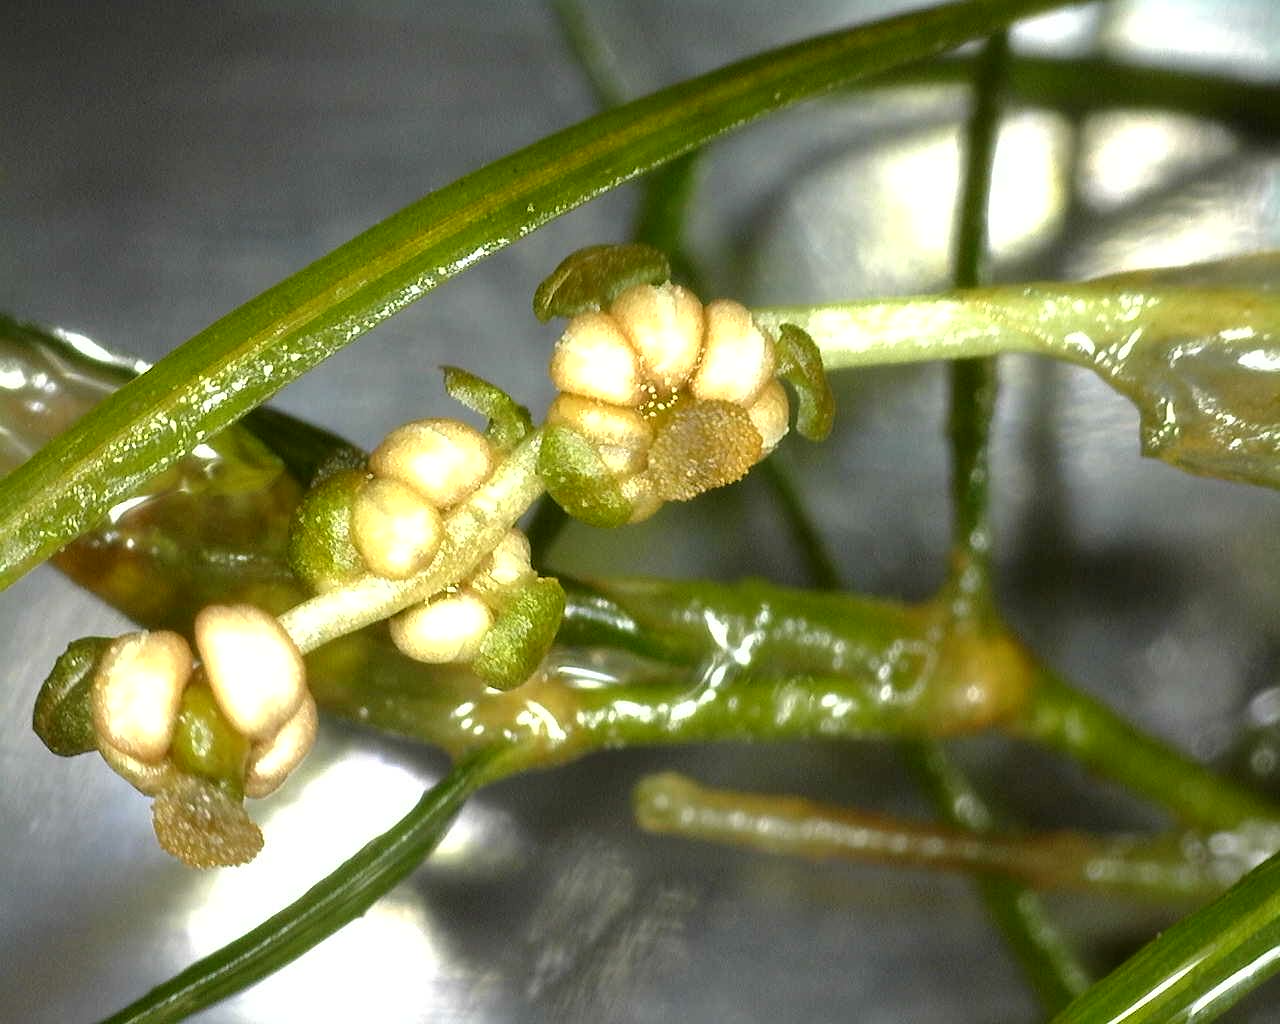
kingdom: Plantae
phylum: Tracheophyta
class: Liliopsida
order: Alismatales
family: Potamogetonaceae
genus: Potamogeton
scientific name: Potamogeton trichoides
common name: Hairlike pondweed
